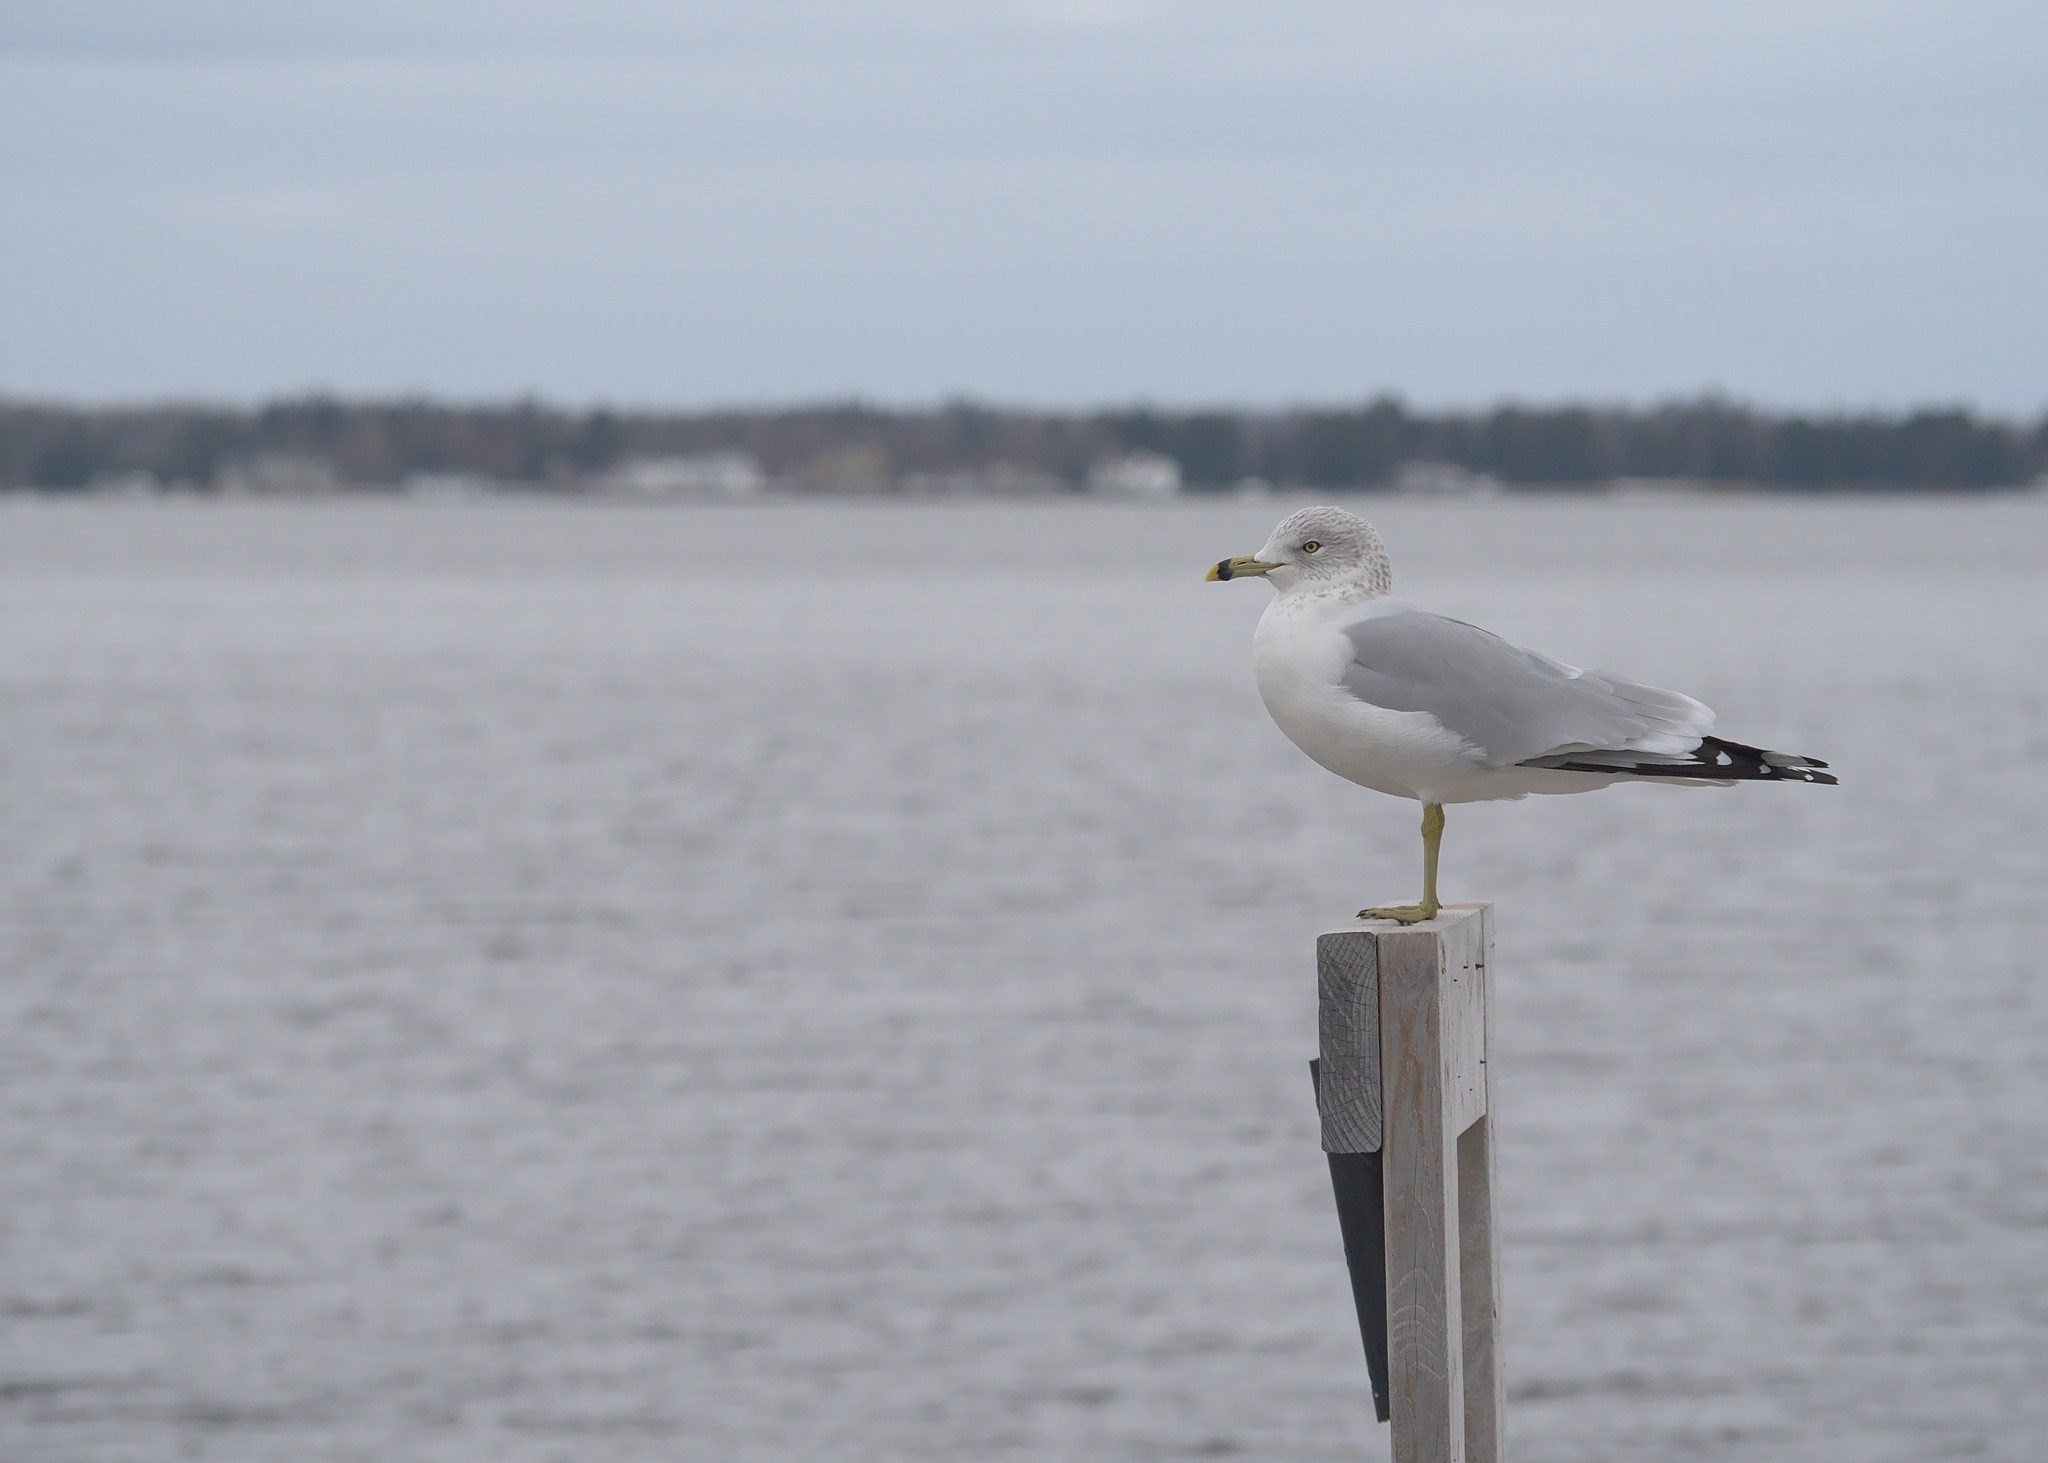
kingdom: Animalia
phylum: Chordata
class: Aves
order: Charadriiformes
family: Laridae
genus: Larus
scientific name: Larus delawarensis
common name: Ring-billed gull
